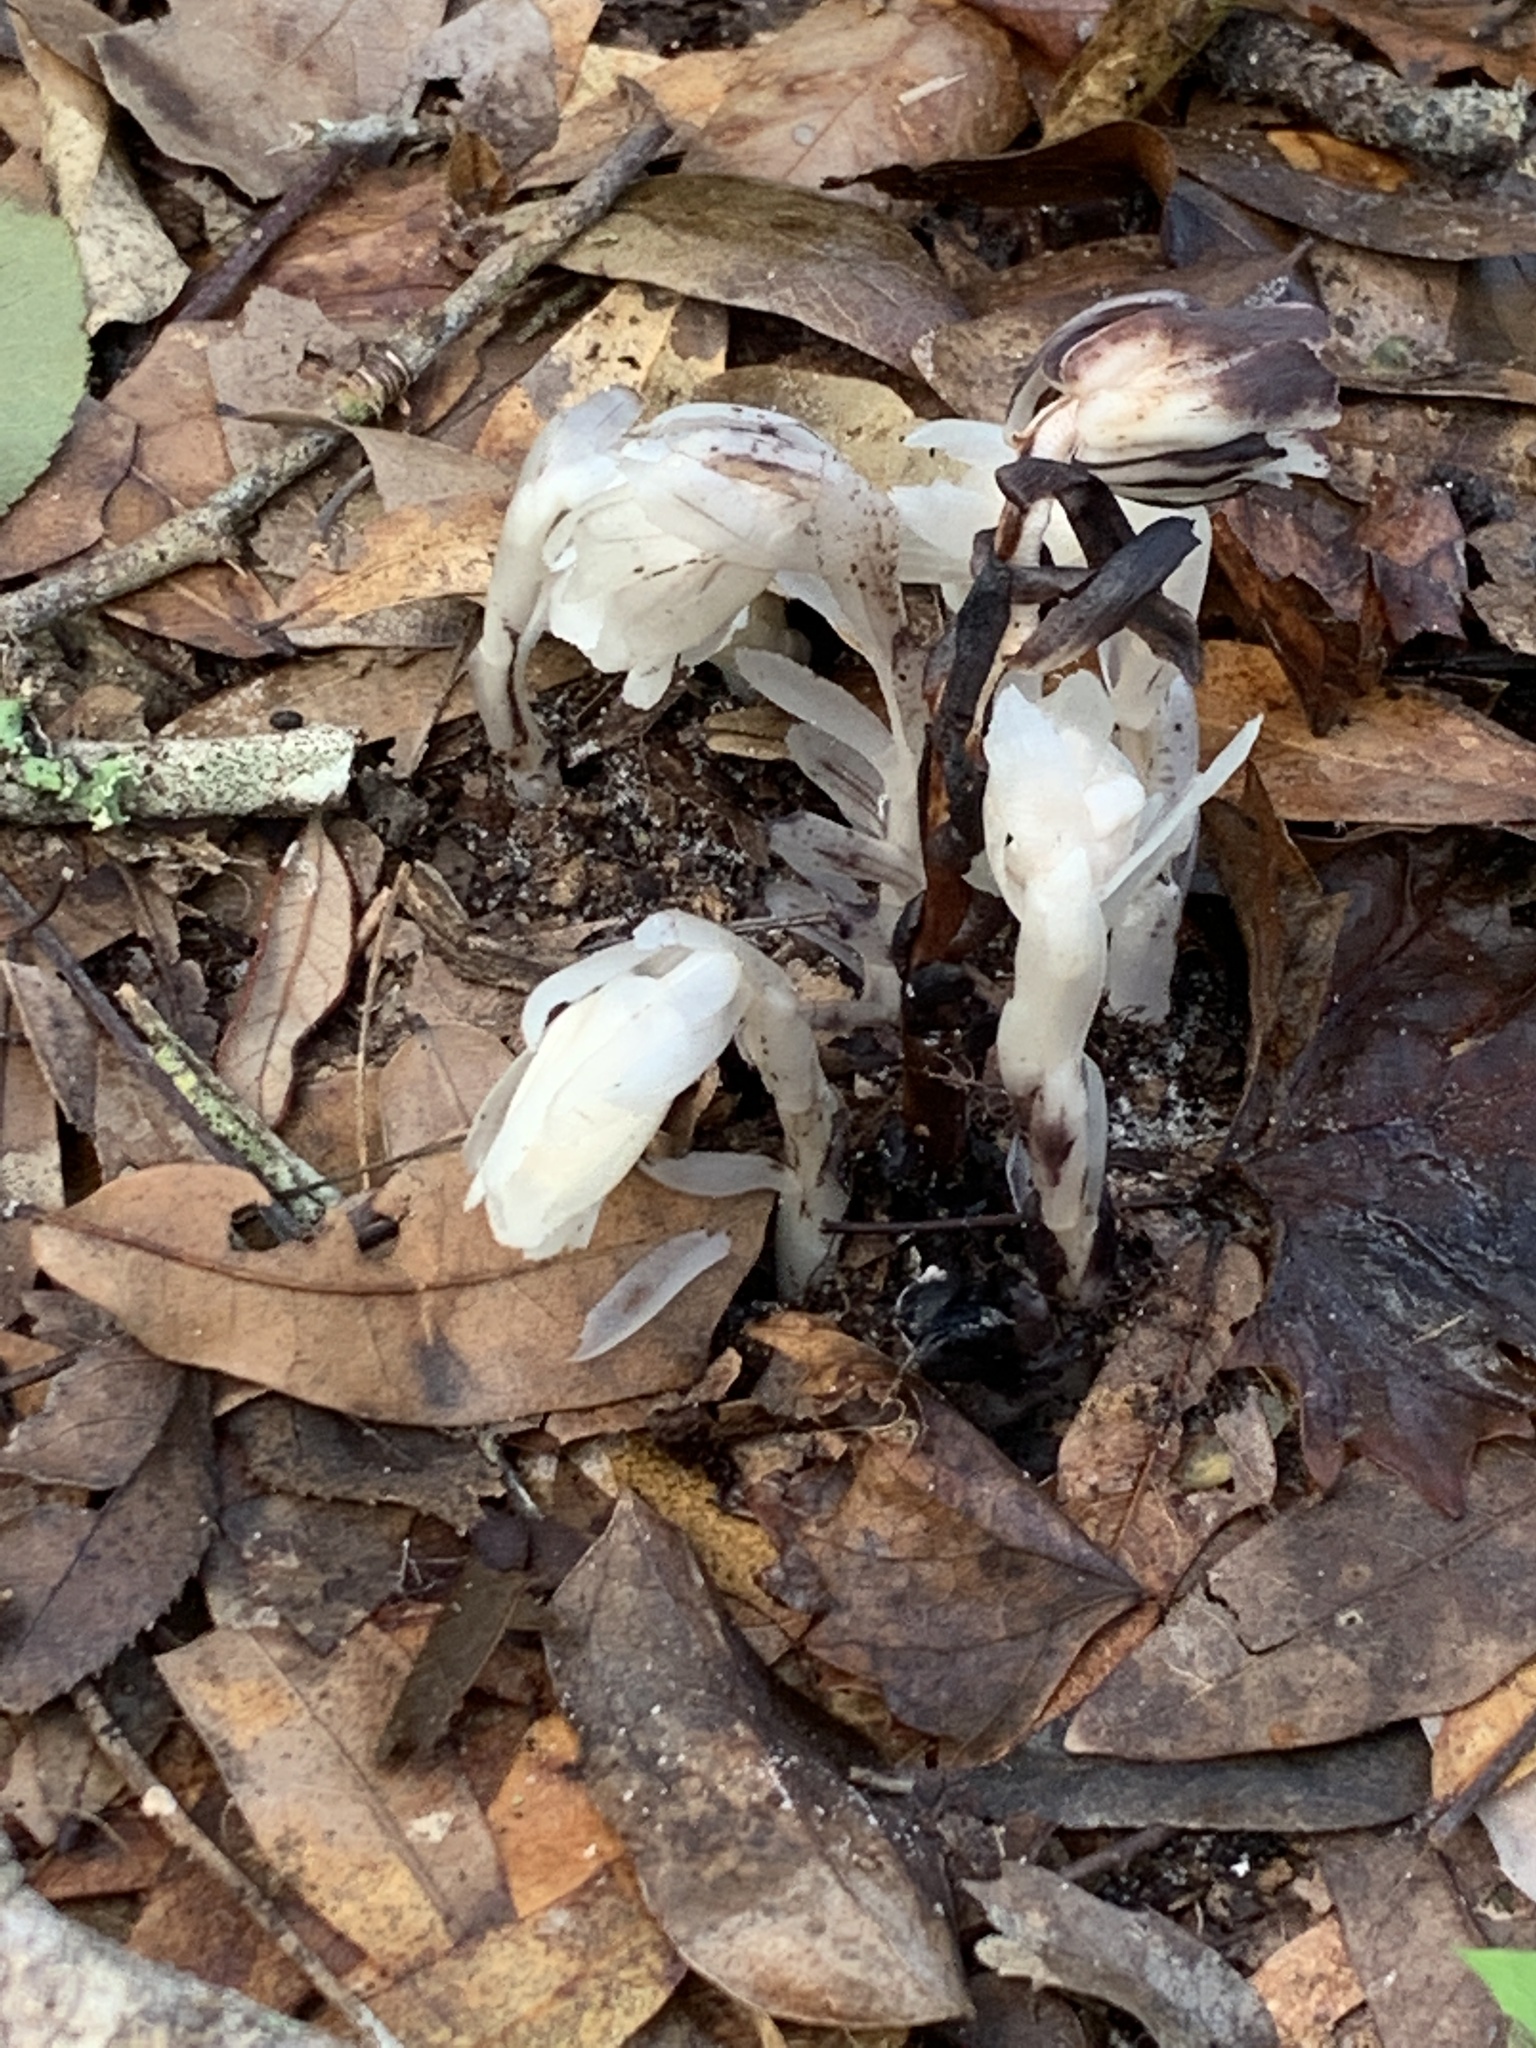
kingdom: Plantae
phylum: Tracheophyta
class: Magnoliopsida
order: Ericales
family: Ericaceae
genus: Monotropa
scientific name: Monotropa uniflora
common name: Convulsion root
